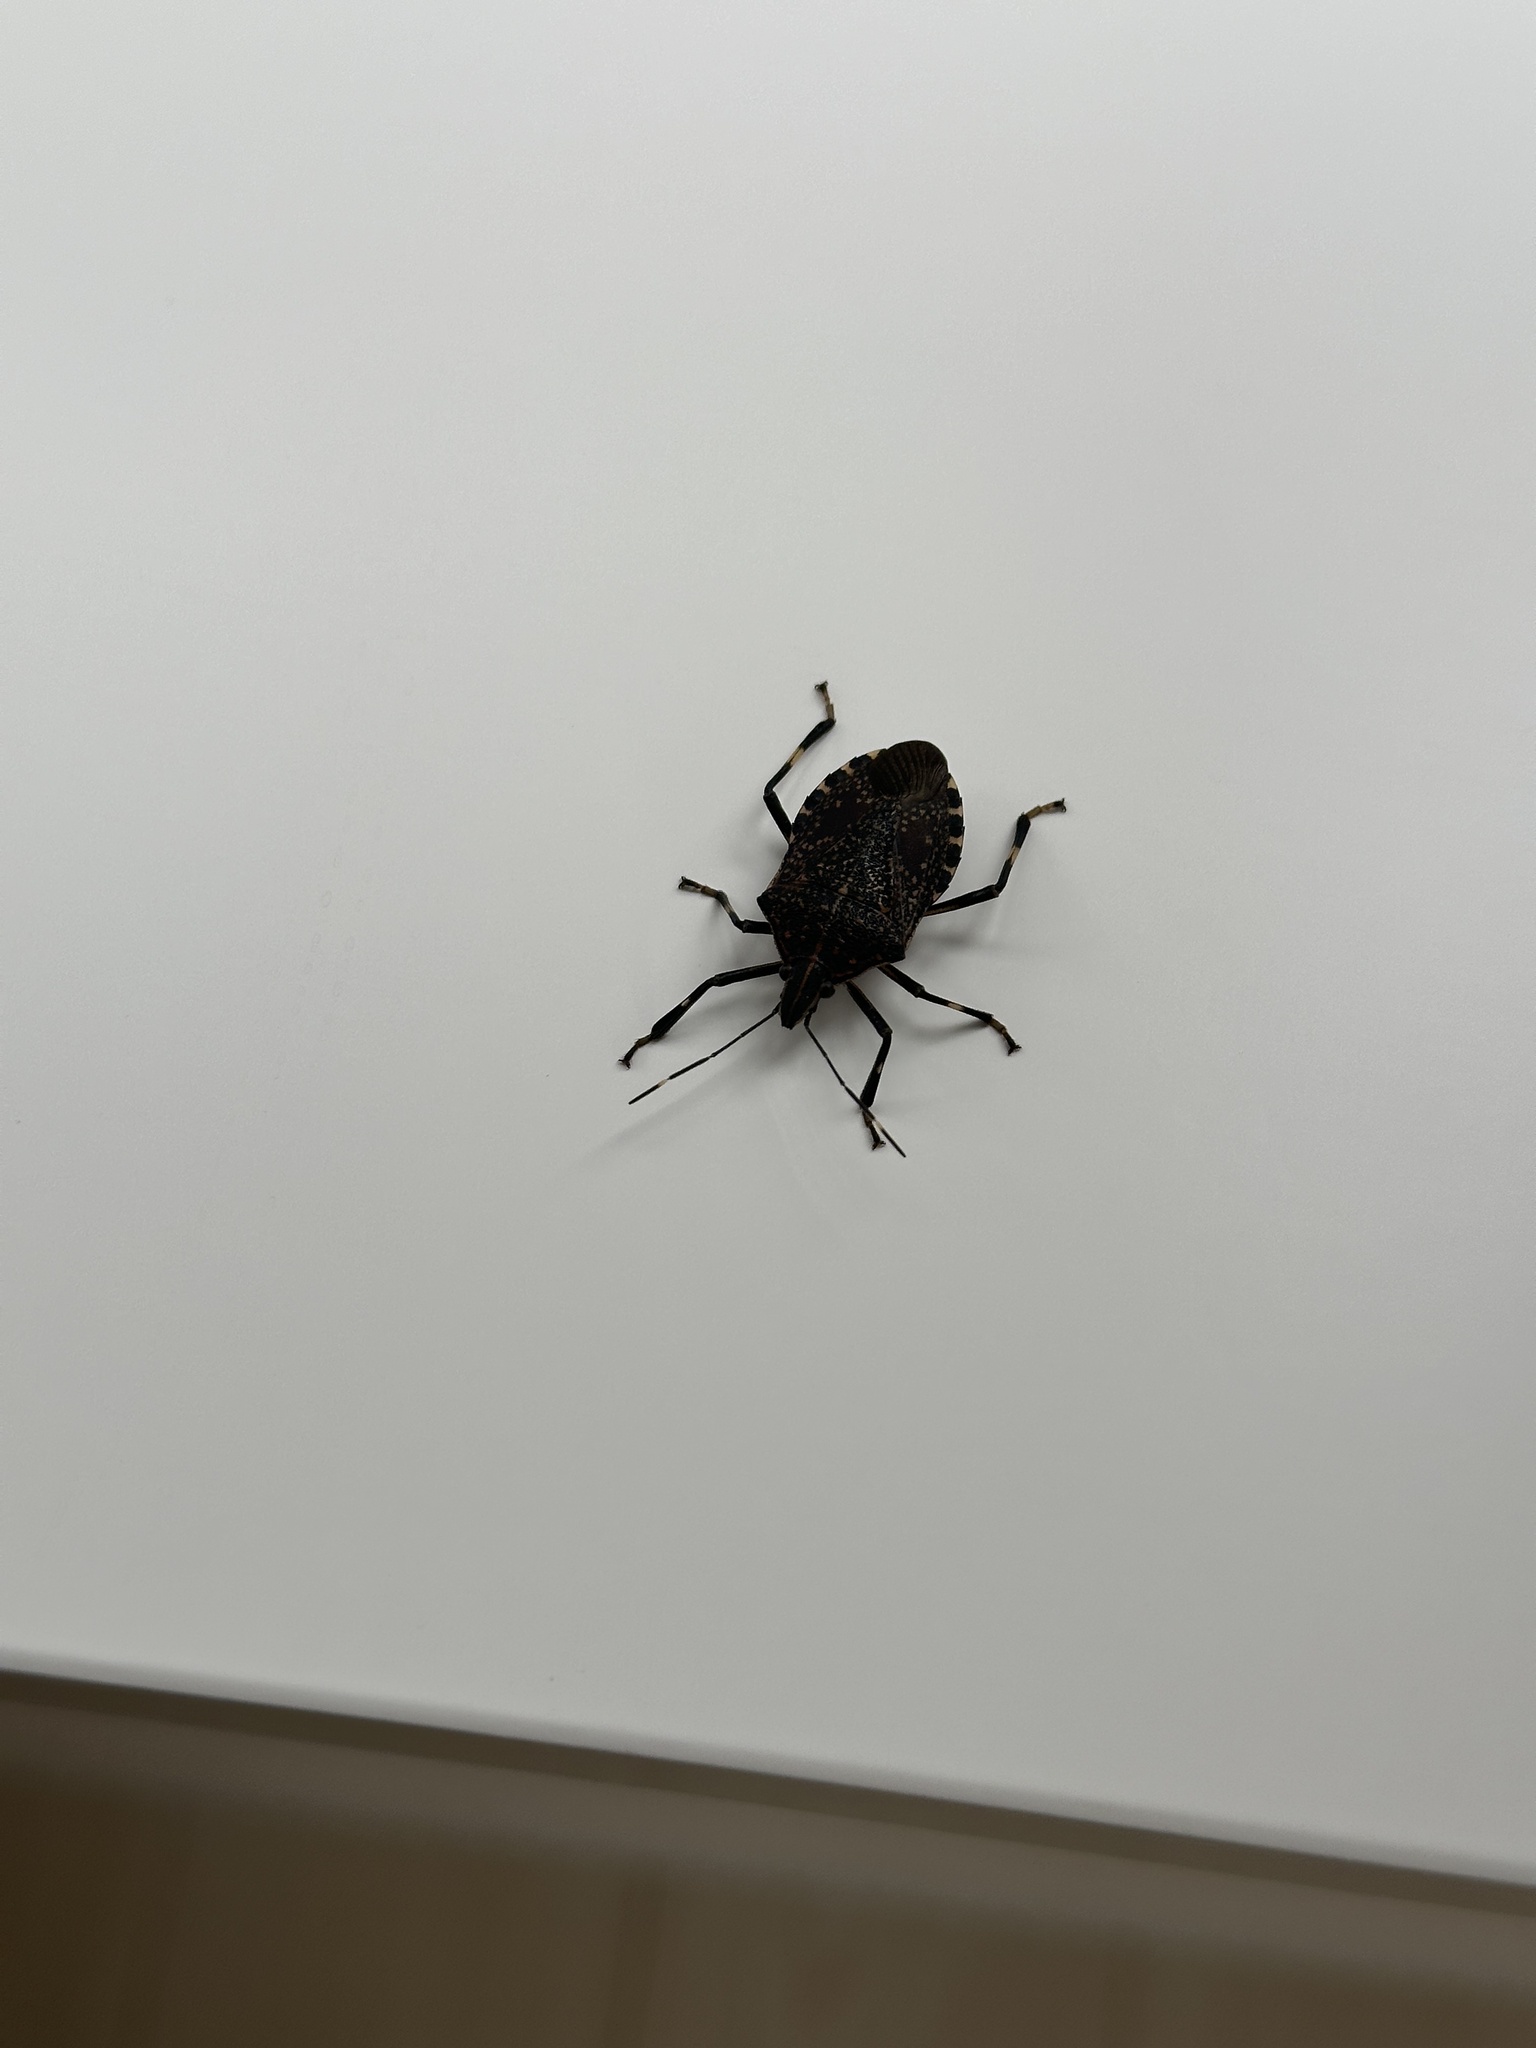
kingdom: Animalia
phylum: Arthropoda
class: Insecta
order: Hemiptera
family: Pentatomidae
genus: Erthesina
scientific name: Erthesina fullo
